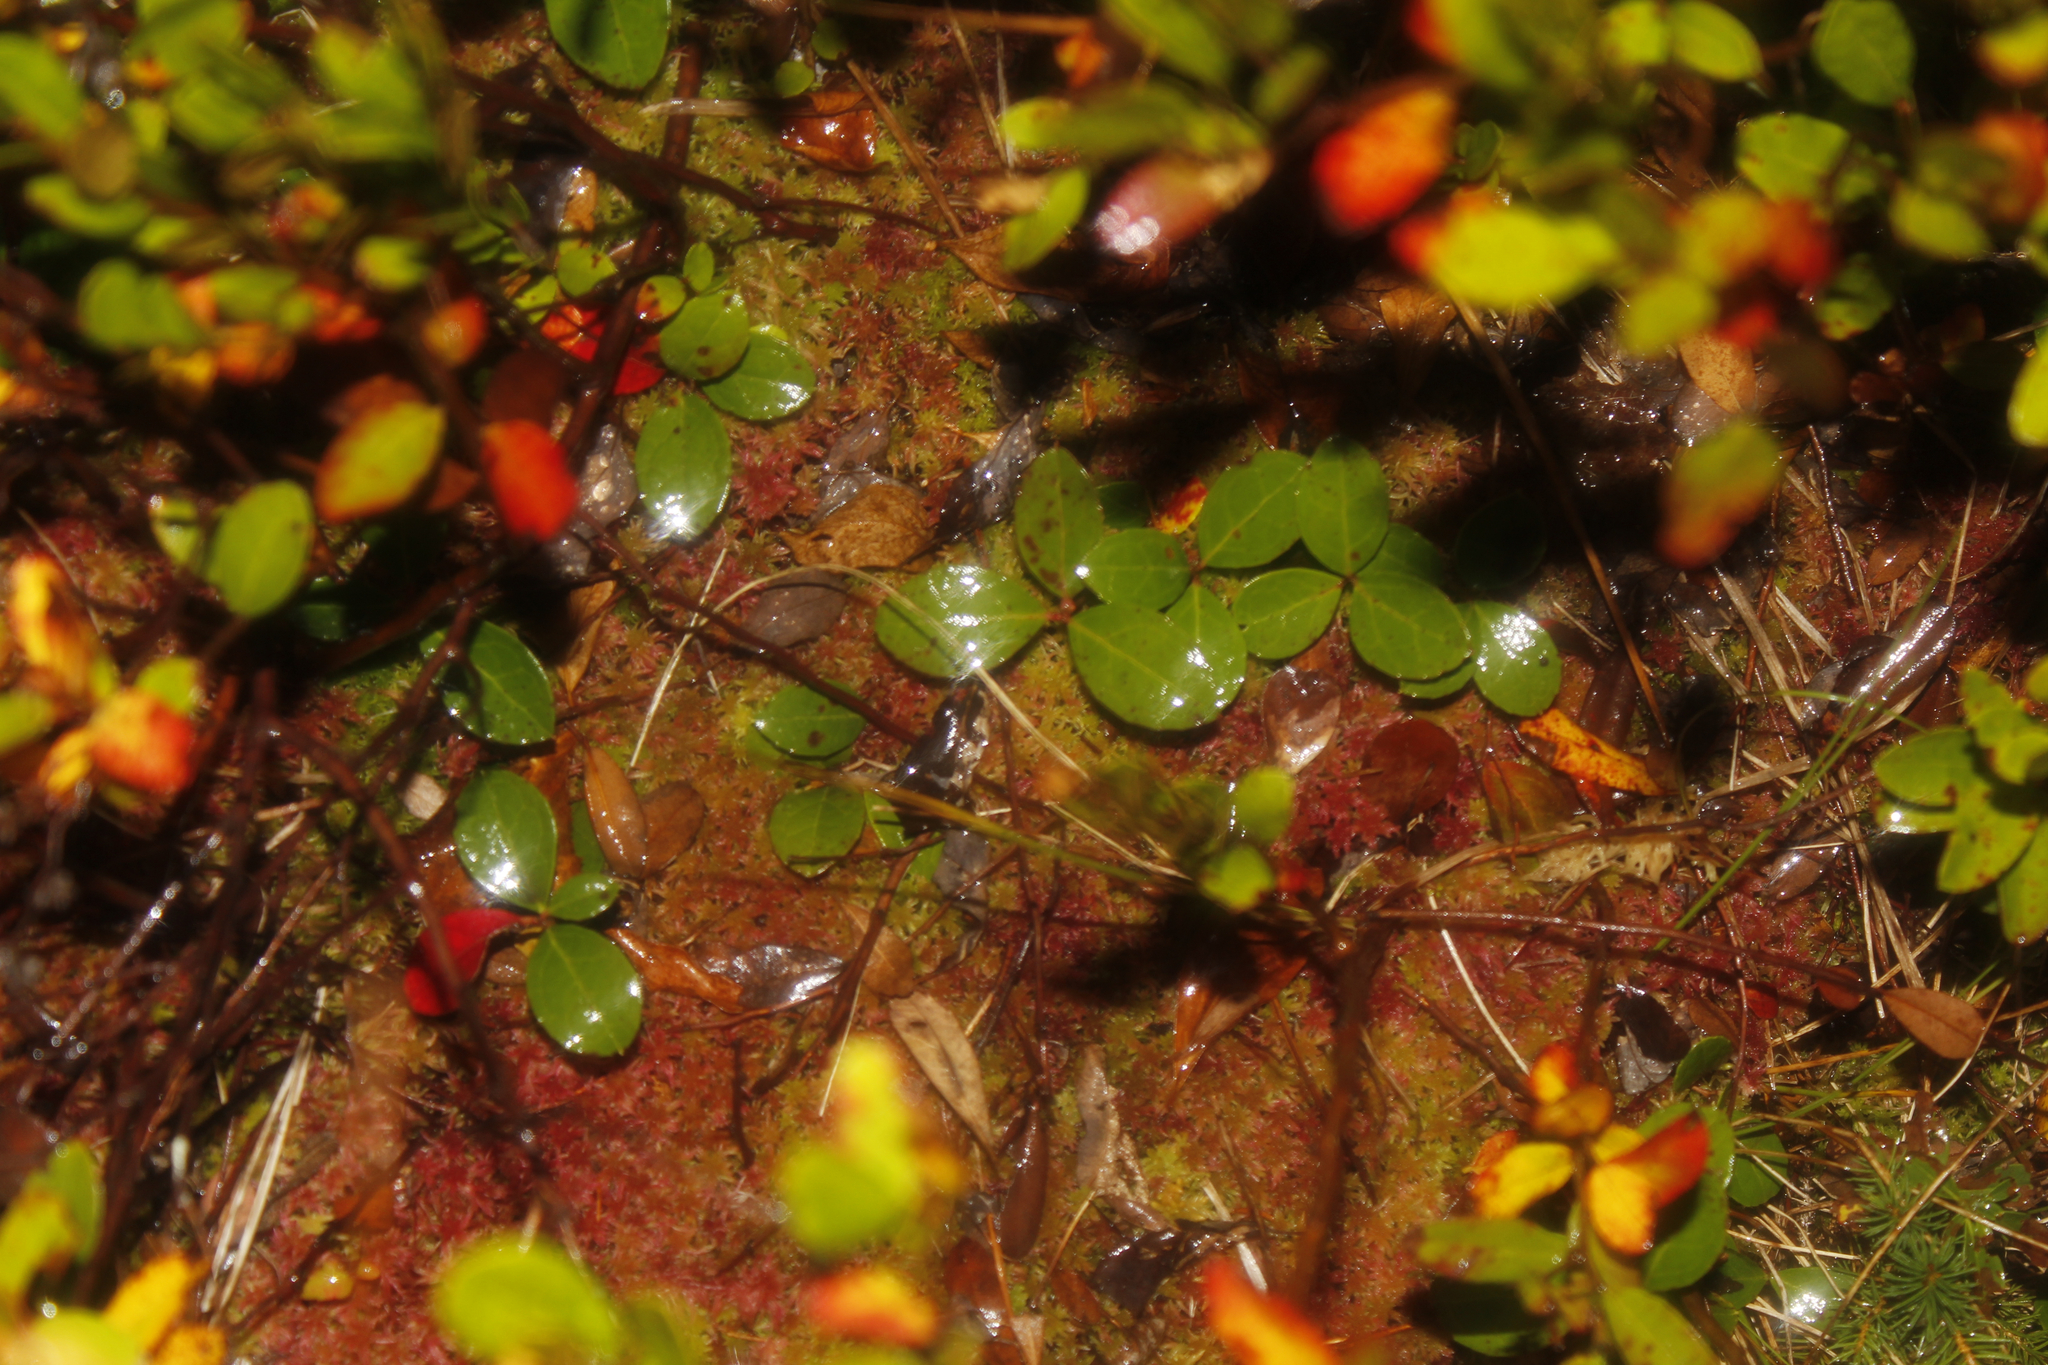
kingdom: Plantae
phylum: Tracheophyta
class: Magnoliopsida
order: Ericales
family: Ericaceae
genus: Gaultheria
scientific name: Gaultheria procumbens
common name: Checkerberry
